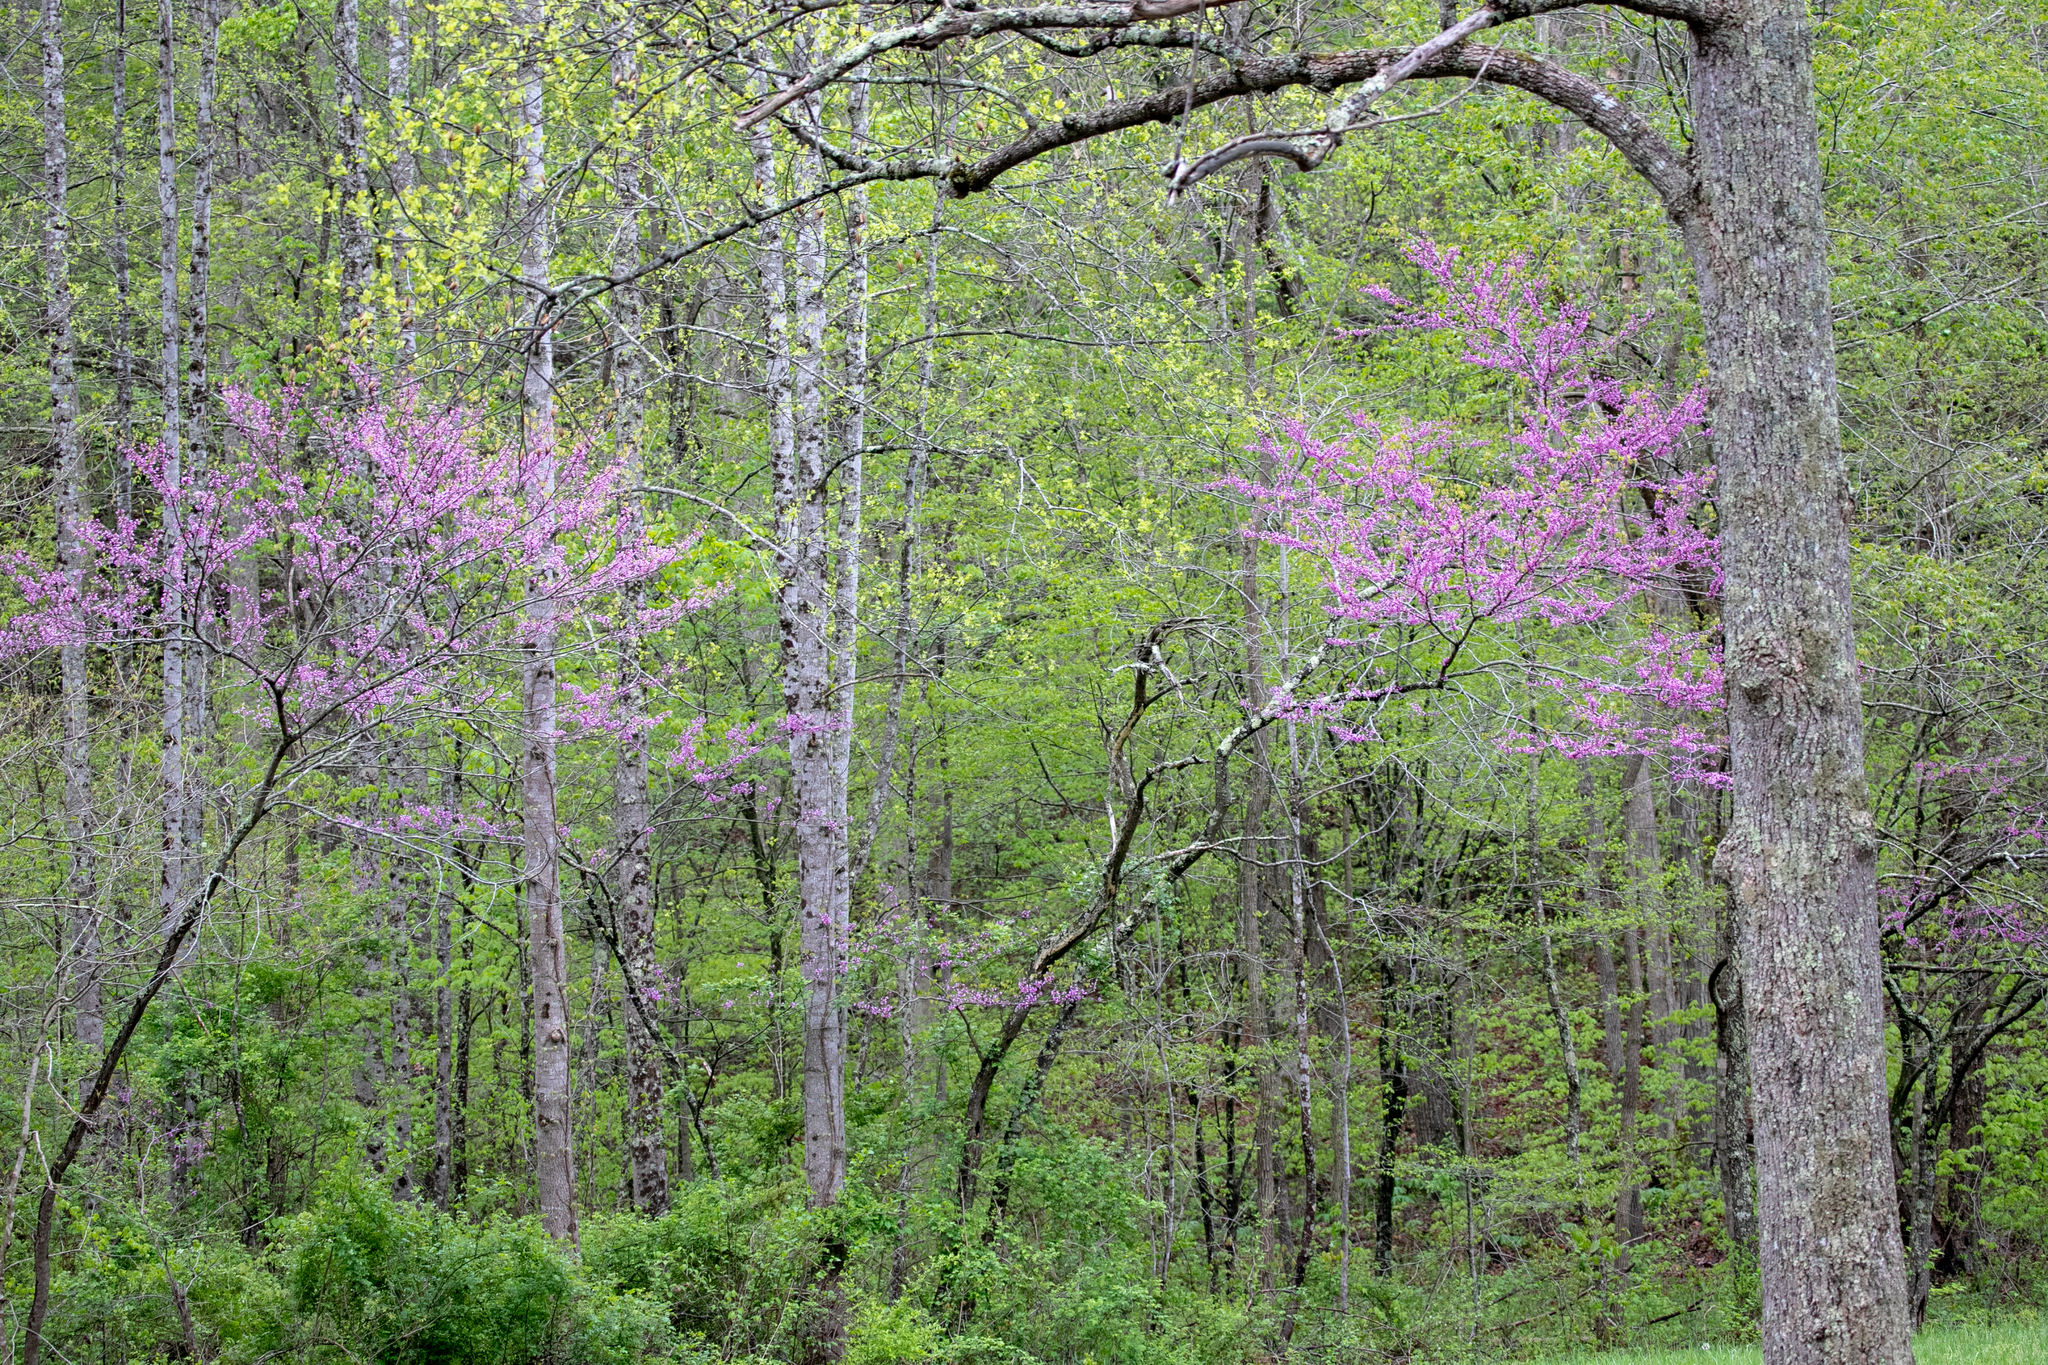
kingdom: Plantae
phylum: Tracheophyta
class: Magnoliopsida
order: Fabales
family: Fabaceae
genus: Cercis
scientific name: Cercis canadensis
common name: Eastern redbud
